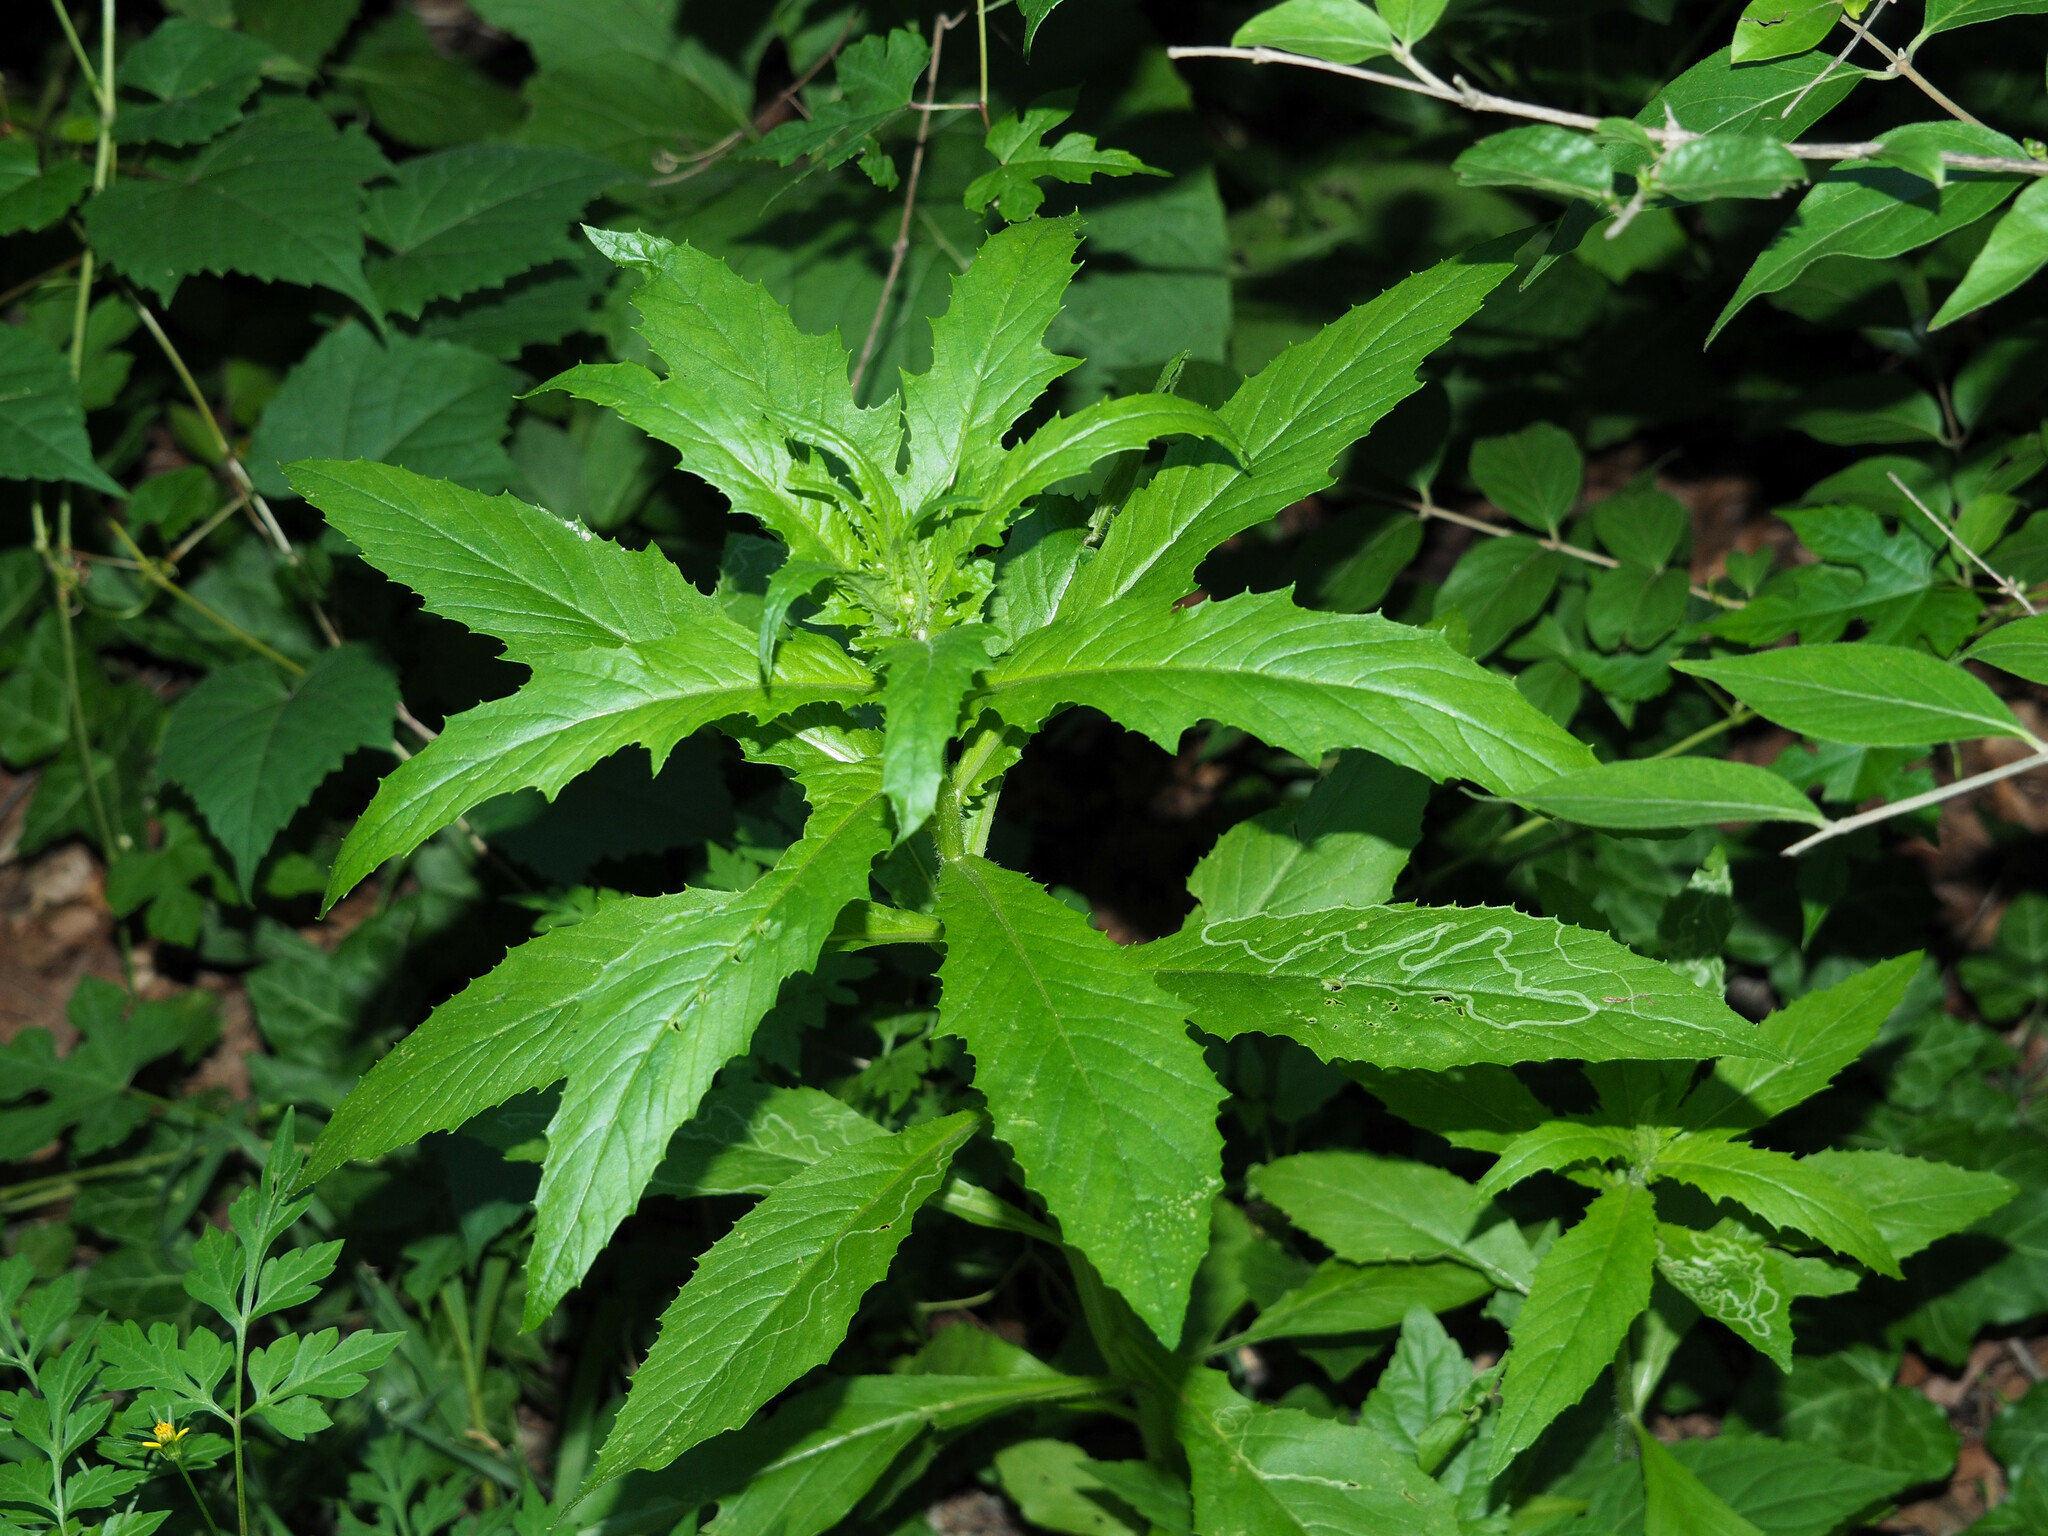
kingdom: Animalia
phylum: Arthropoda
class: Insecta
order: Lepidoptera
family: Gracillariidae
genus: Phyllocnistis
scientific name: Phyllocnistis insignis
